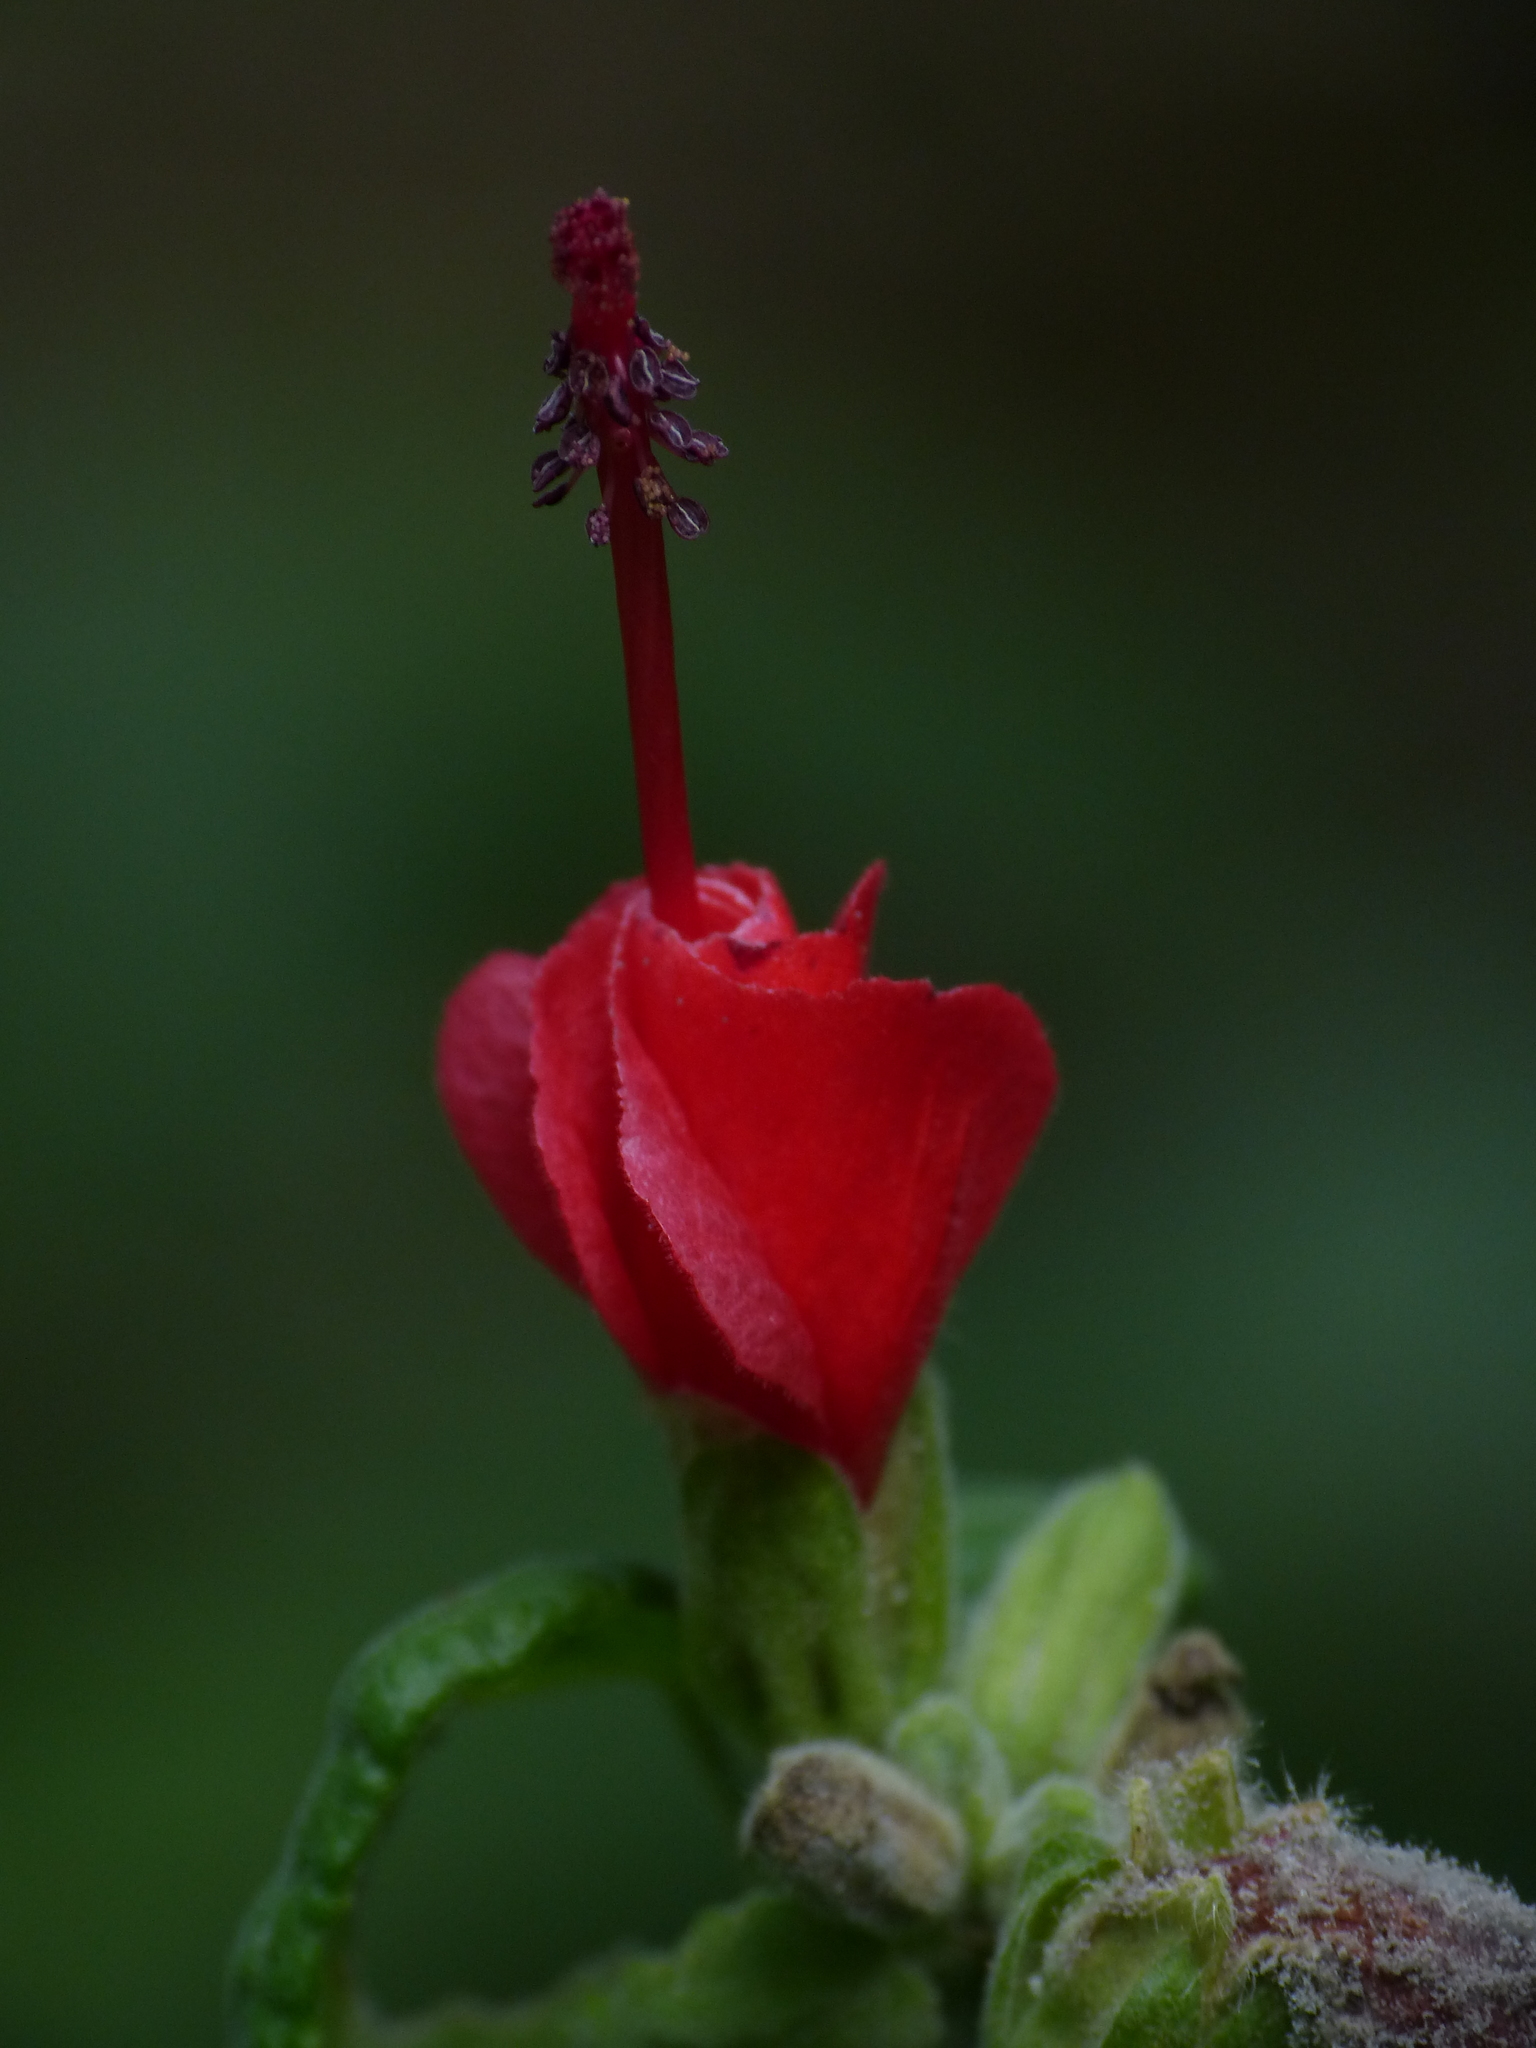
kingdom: Plantae
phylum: Tracheophyta
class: Magnoliopsida
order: Malvales
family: Malvaceae
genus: Malvaviscus
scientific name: Malvaviscus arboreus
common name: Wax mallow
